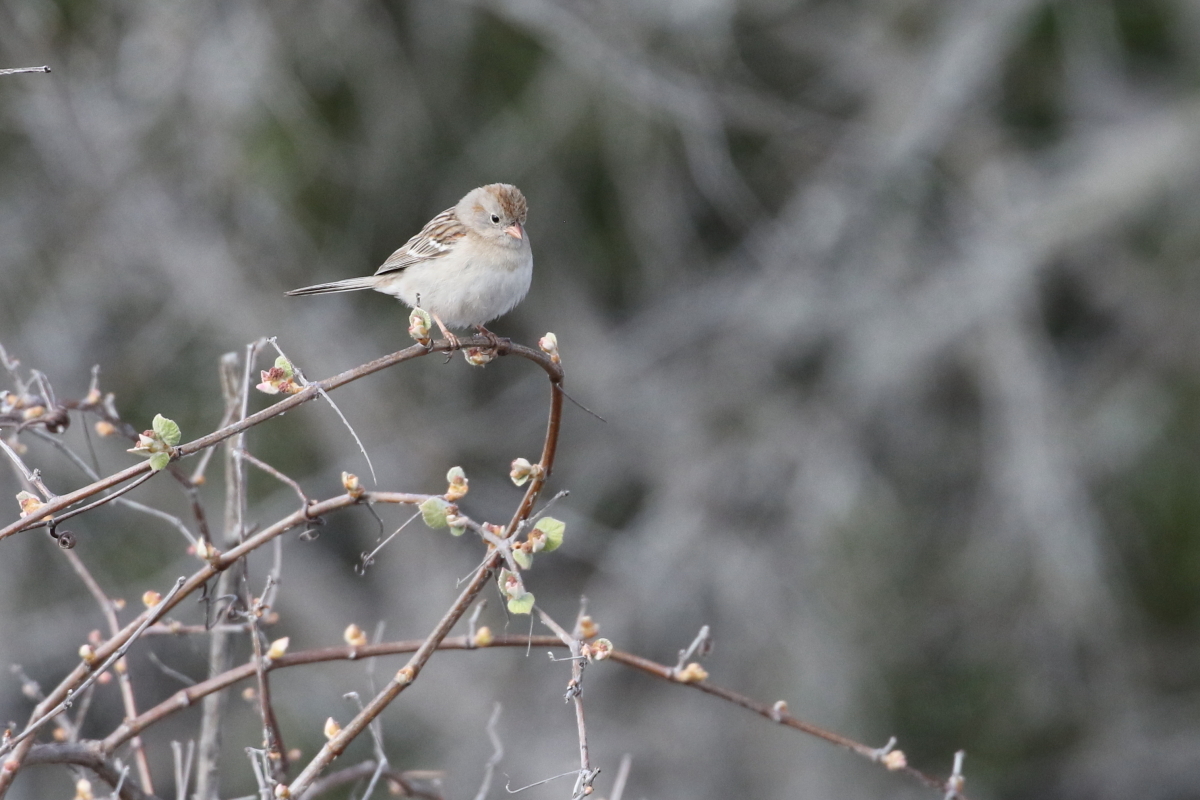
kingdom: Animalia
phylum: Chordata
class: Aves
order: Passeriformes
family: Passerellidae
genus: Spizella
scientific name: Spizella pusilla
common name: Field sparrow
